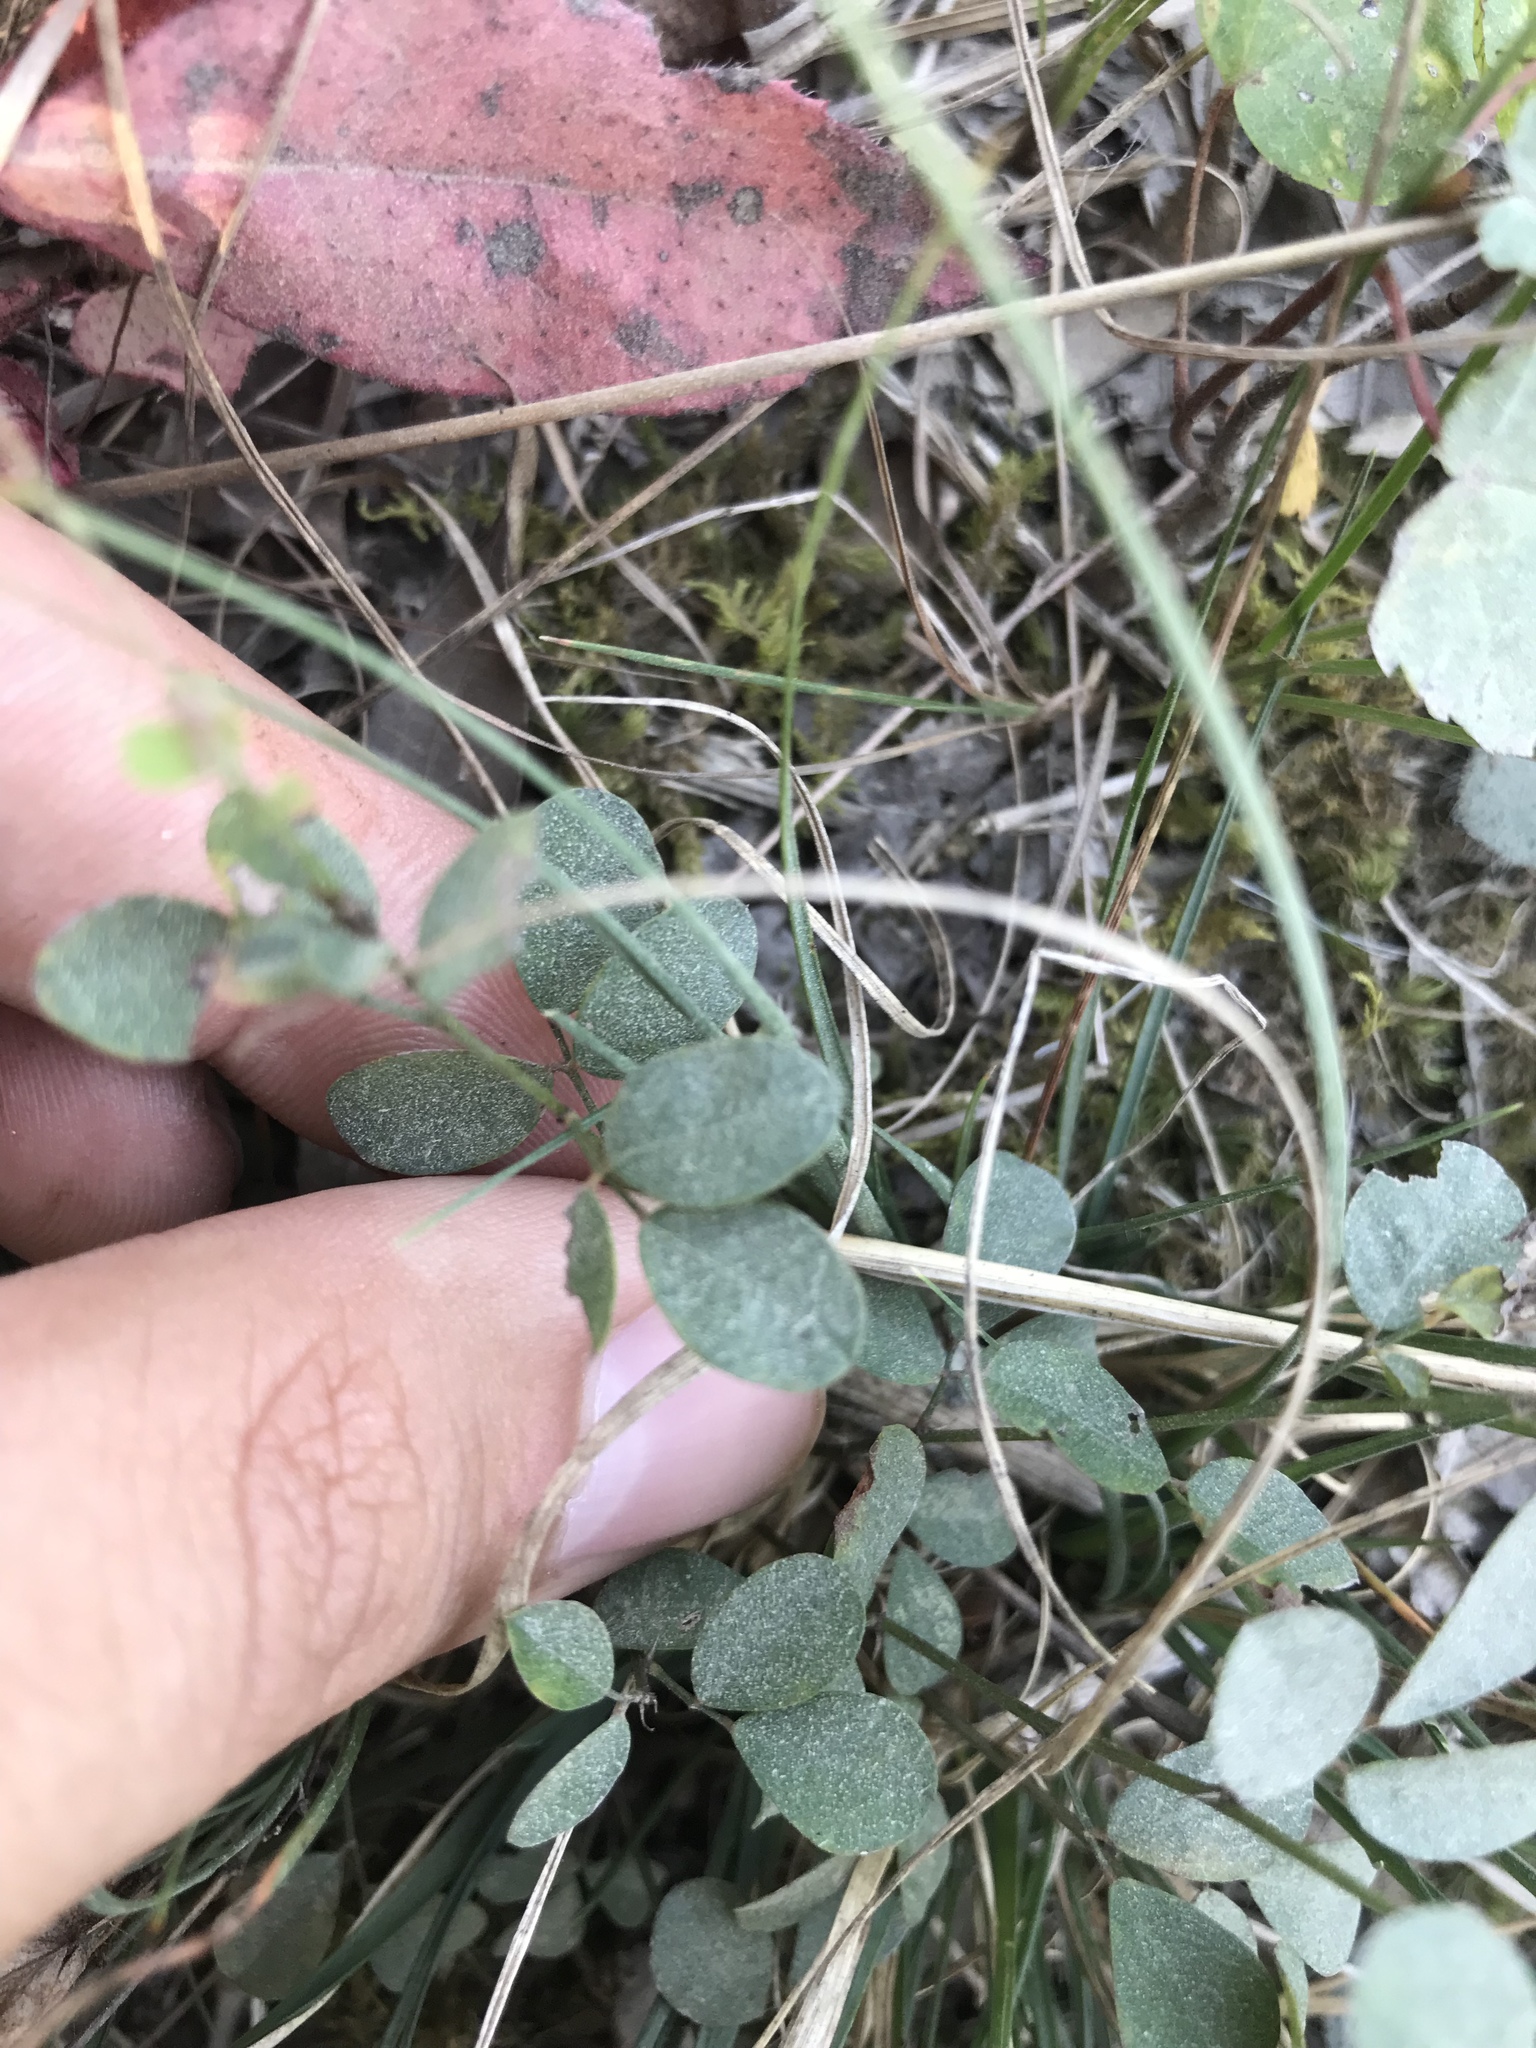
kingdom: Plantae
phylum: Tracheophyta
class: Magnoliopsida
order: Fabales
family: Fabaceae
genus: Lespedeza
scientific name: Lespedeza repens
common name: Creeping bush-clover
